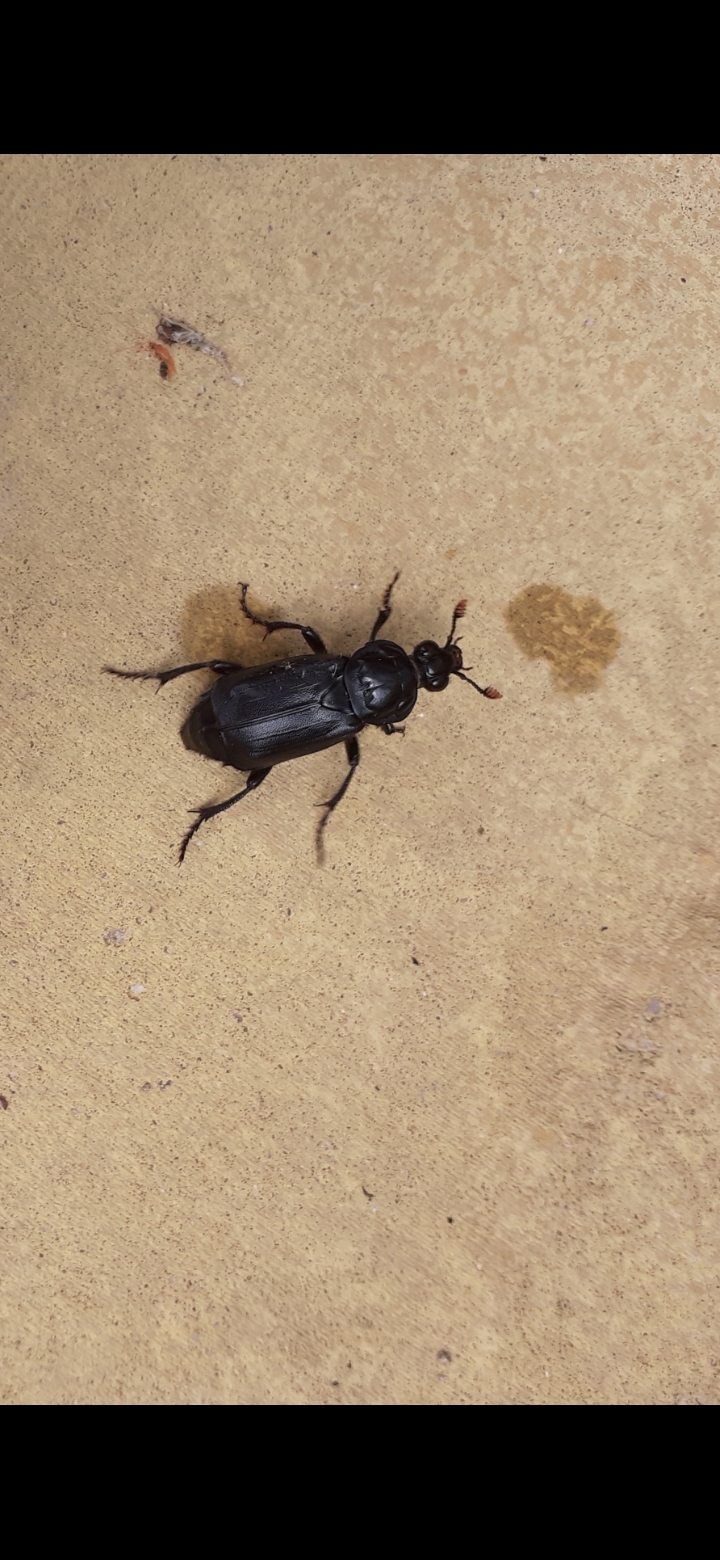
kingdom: Animalia
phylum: Arthropoda
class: Insecta
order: Coleoptera
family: Staphylinidae
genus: Nicrophorus
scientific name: Nicrophorus humator
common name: Black sexton beetle
